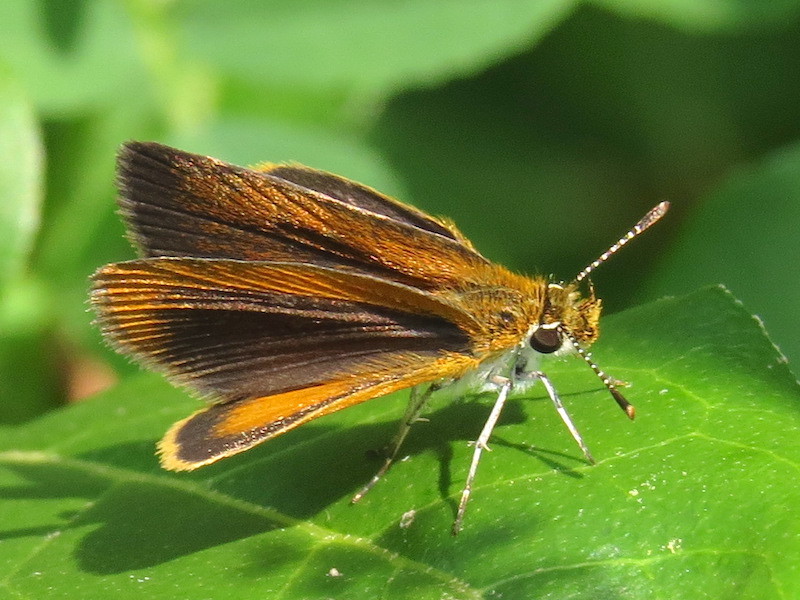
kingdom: Animalia
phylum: Arthropoda
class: Insecta
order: Lepidoptera
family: Hesperiidae
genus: Ancyloxypha
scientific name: Ancyloxypha numitor
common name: Least skipper
